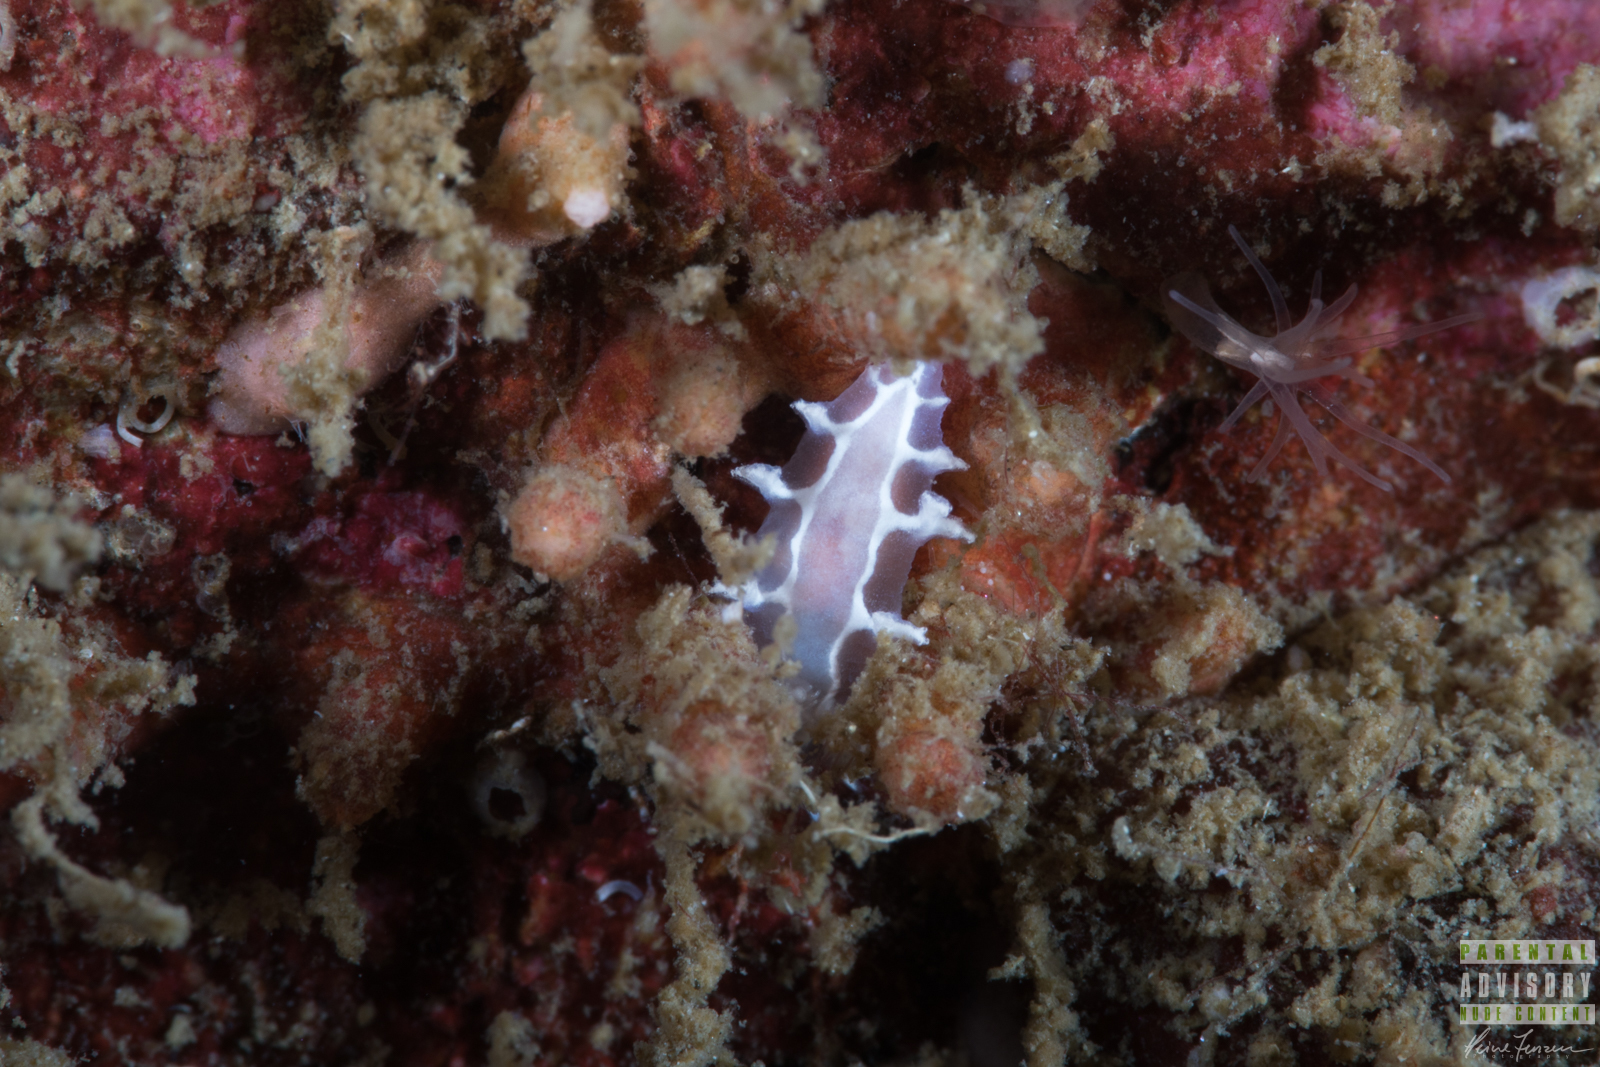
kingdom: Animalia
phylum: Mollusca
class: Gastropoda
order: Nudibranchia
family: Tritoniidae
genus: Duvaucelia
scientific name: Duvaucelia lineata
